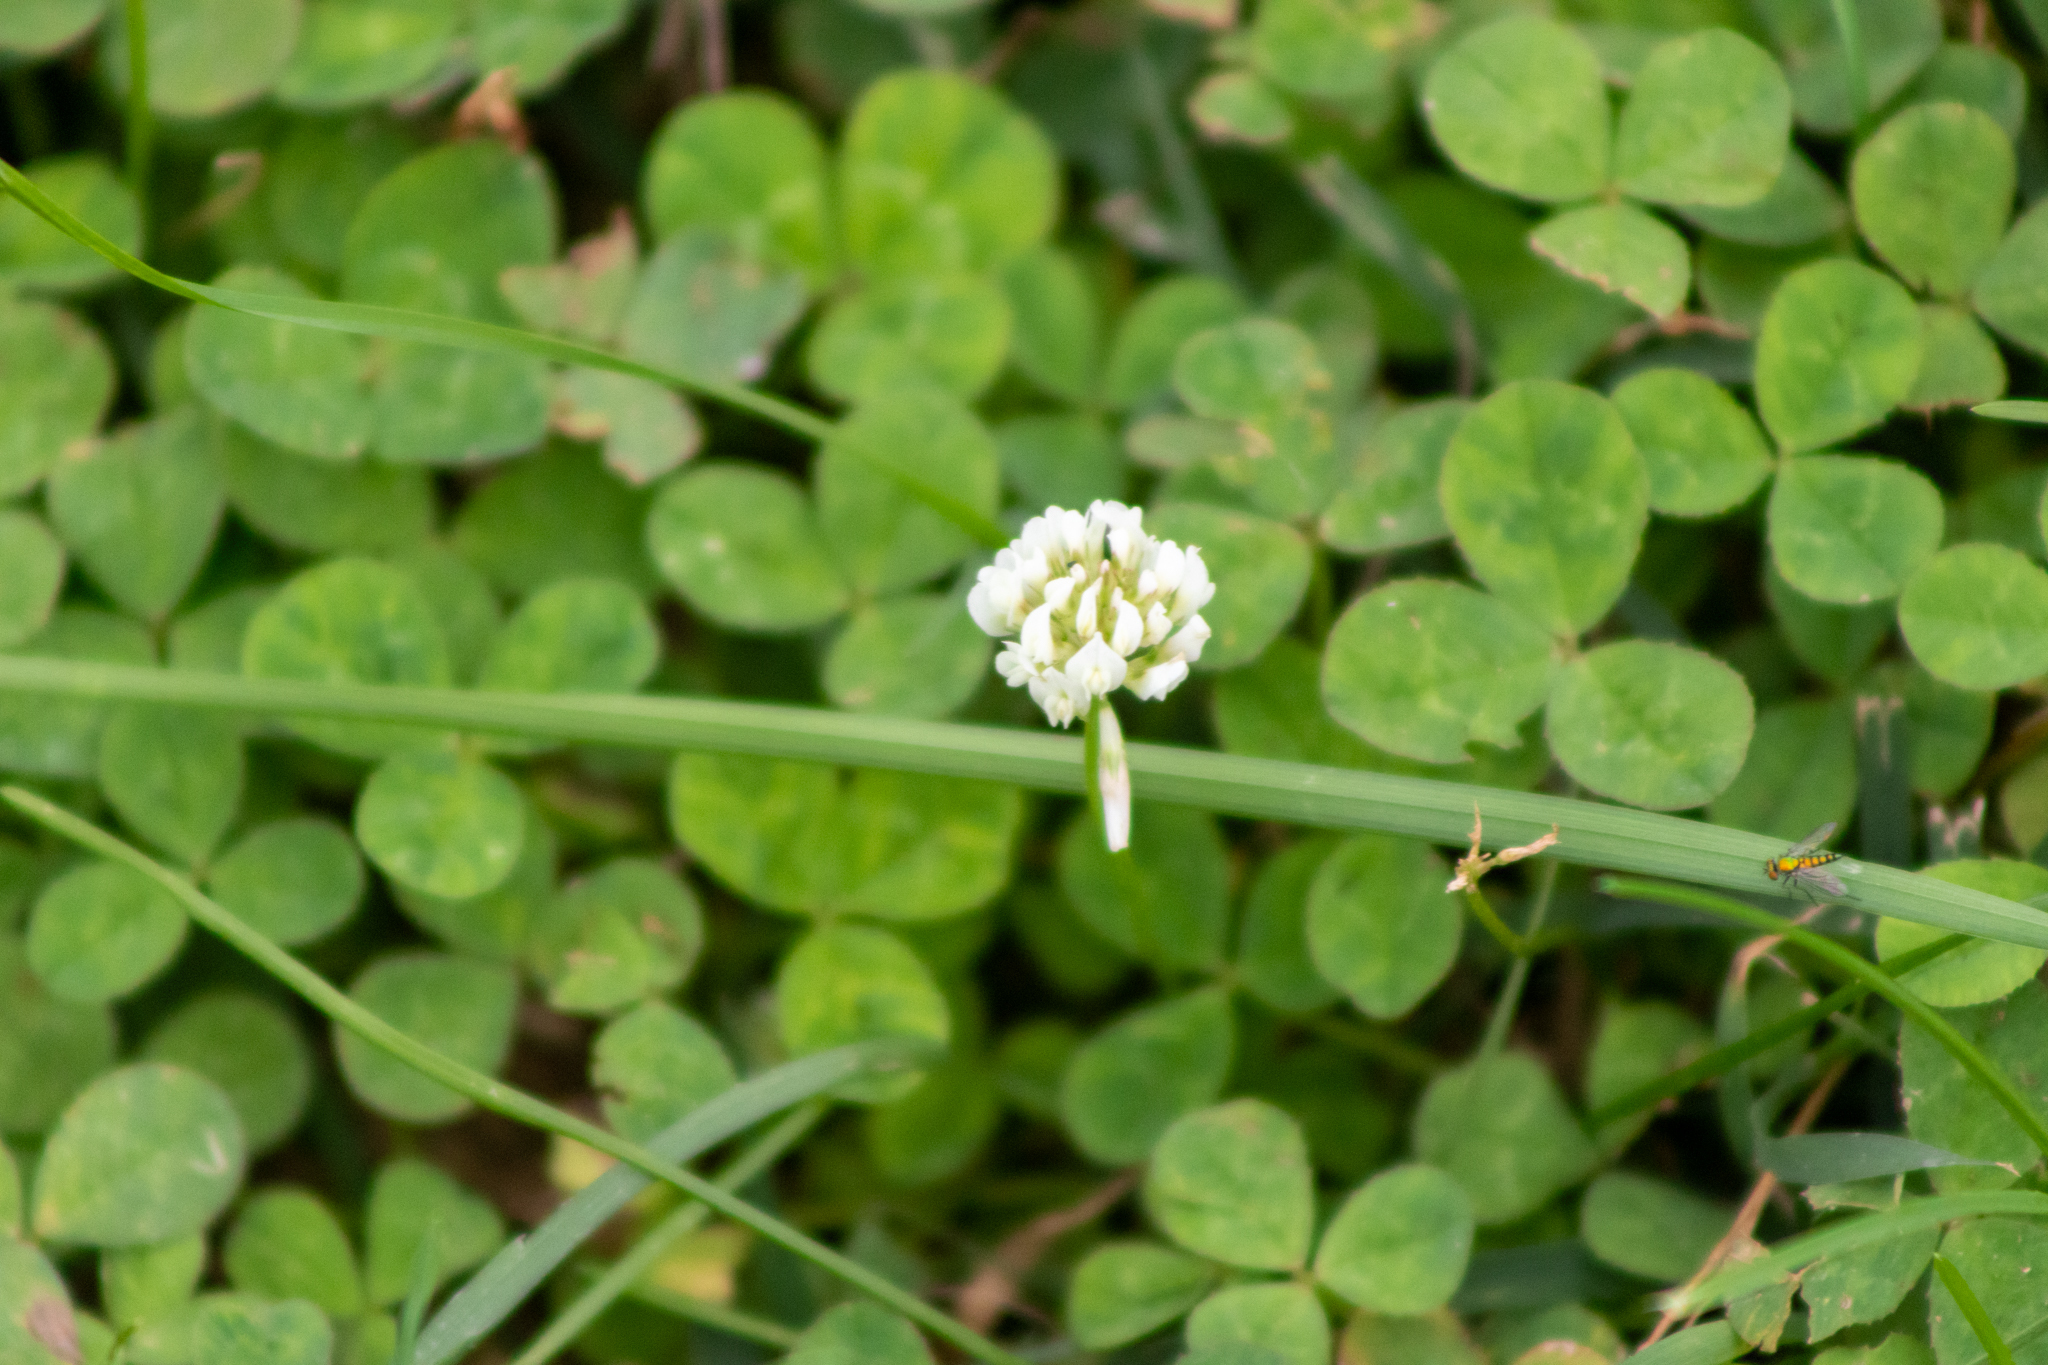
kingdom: Plantae
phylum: Tracheophyta
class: Magnoliopsida
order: Fabales
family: Fabaceae
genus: Trifolium
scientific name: Trifolium repens
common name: White clover
